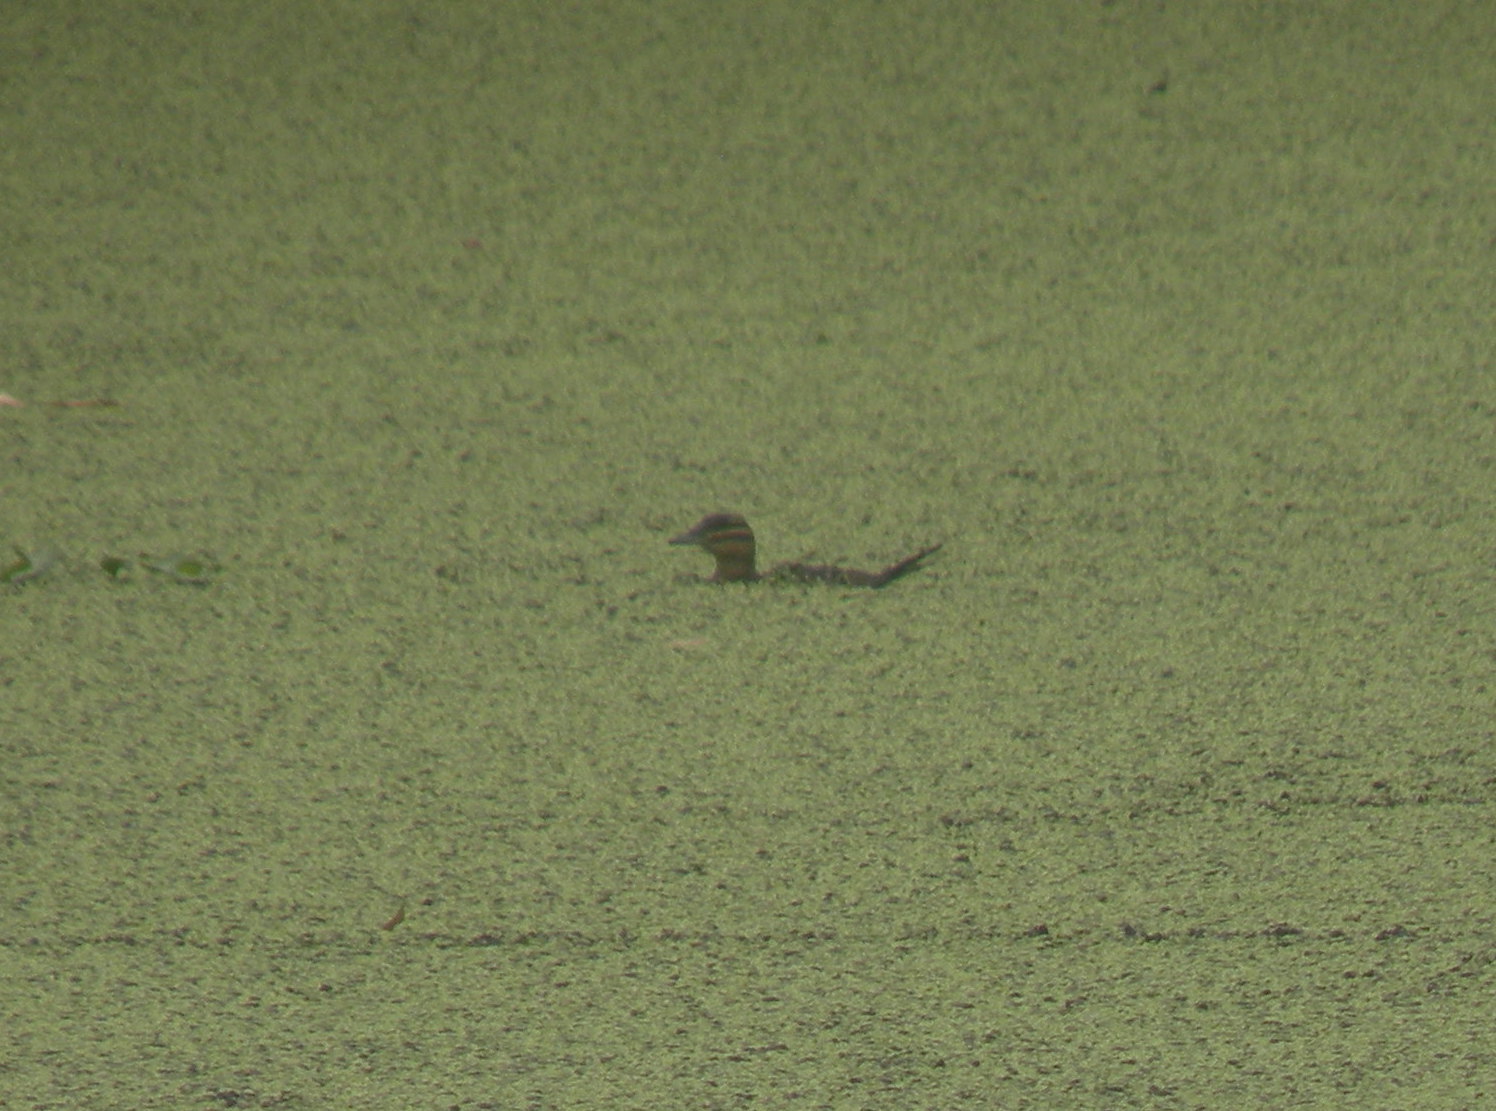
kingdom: Animalia
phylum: Chordata
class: Aves
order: Anseriformes
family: Anatidae
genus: Nomonyx
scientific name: Nomonyx dominicus
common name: Masked duck
